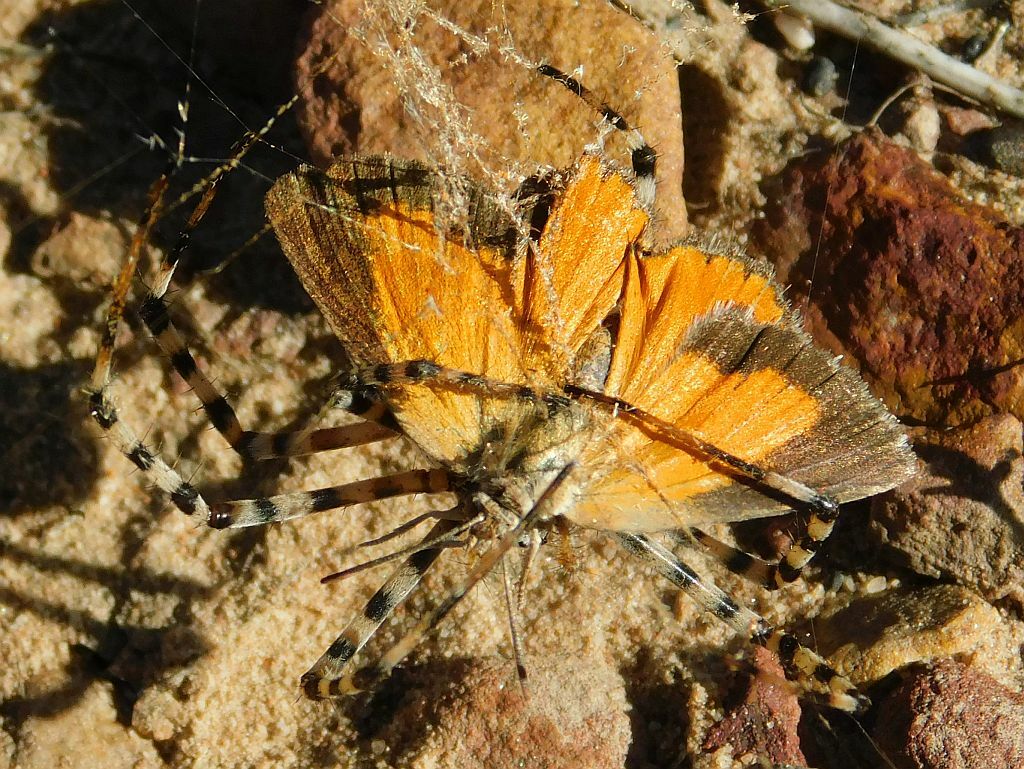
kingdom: Animalia
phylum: Arthropoda
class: Insecta
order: Lepidoptera
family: Lycaenidae
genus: Aloeides
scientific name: Aloeides
